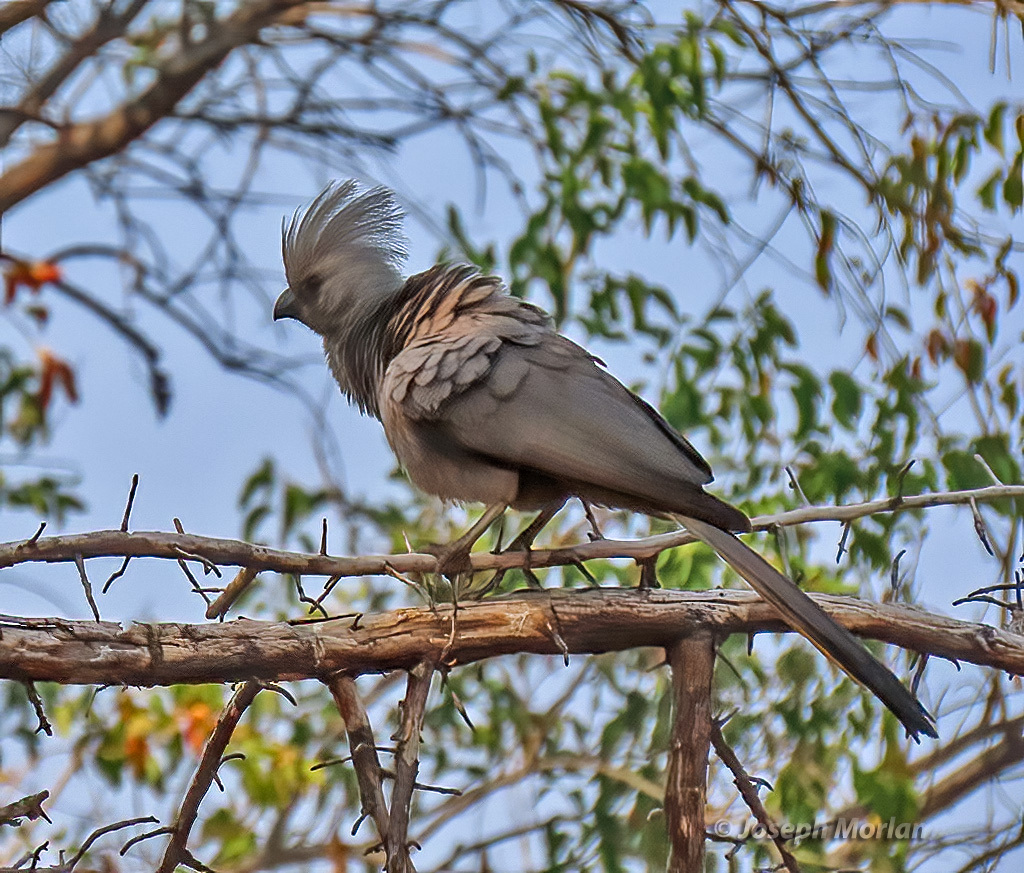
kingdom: Animalia
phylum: Chordata
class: Aves
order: Musophagiformes
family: Musophagidae
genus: Corythaixoides
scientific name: Corythaixoides concolor
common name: Grey go-away-bird
